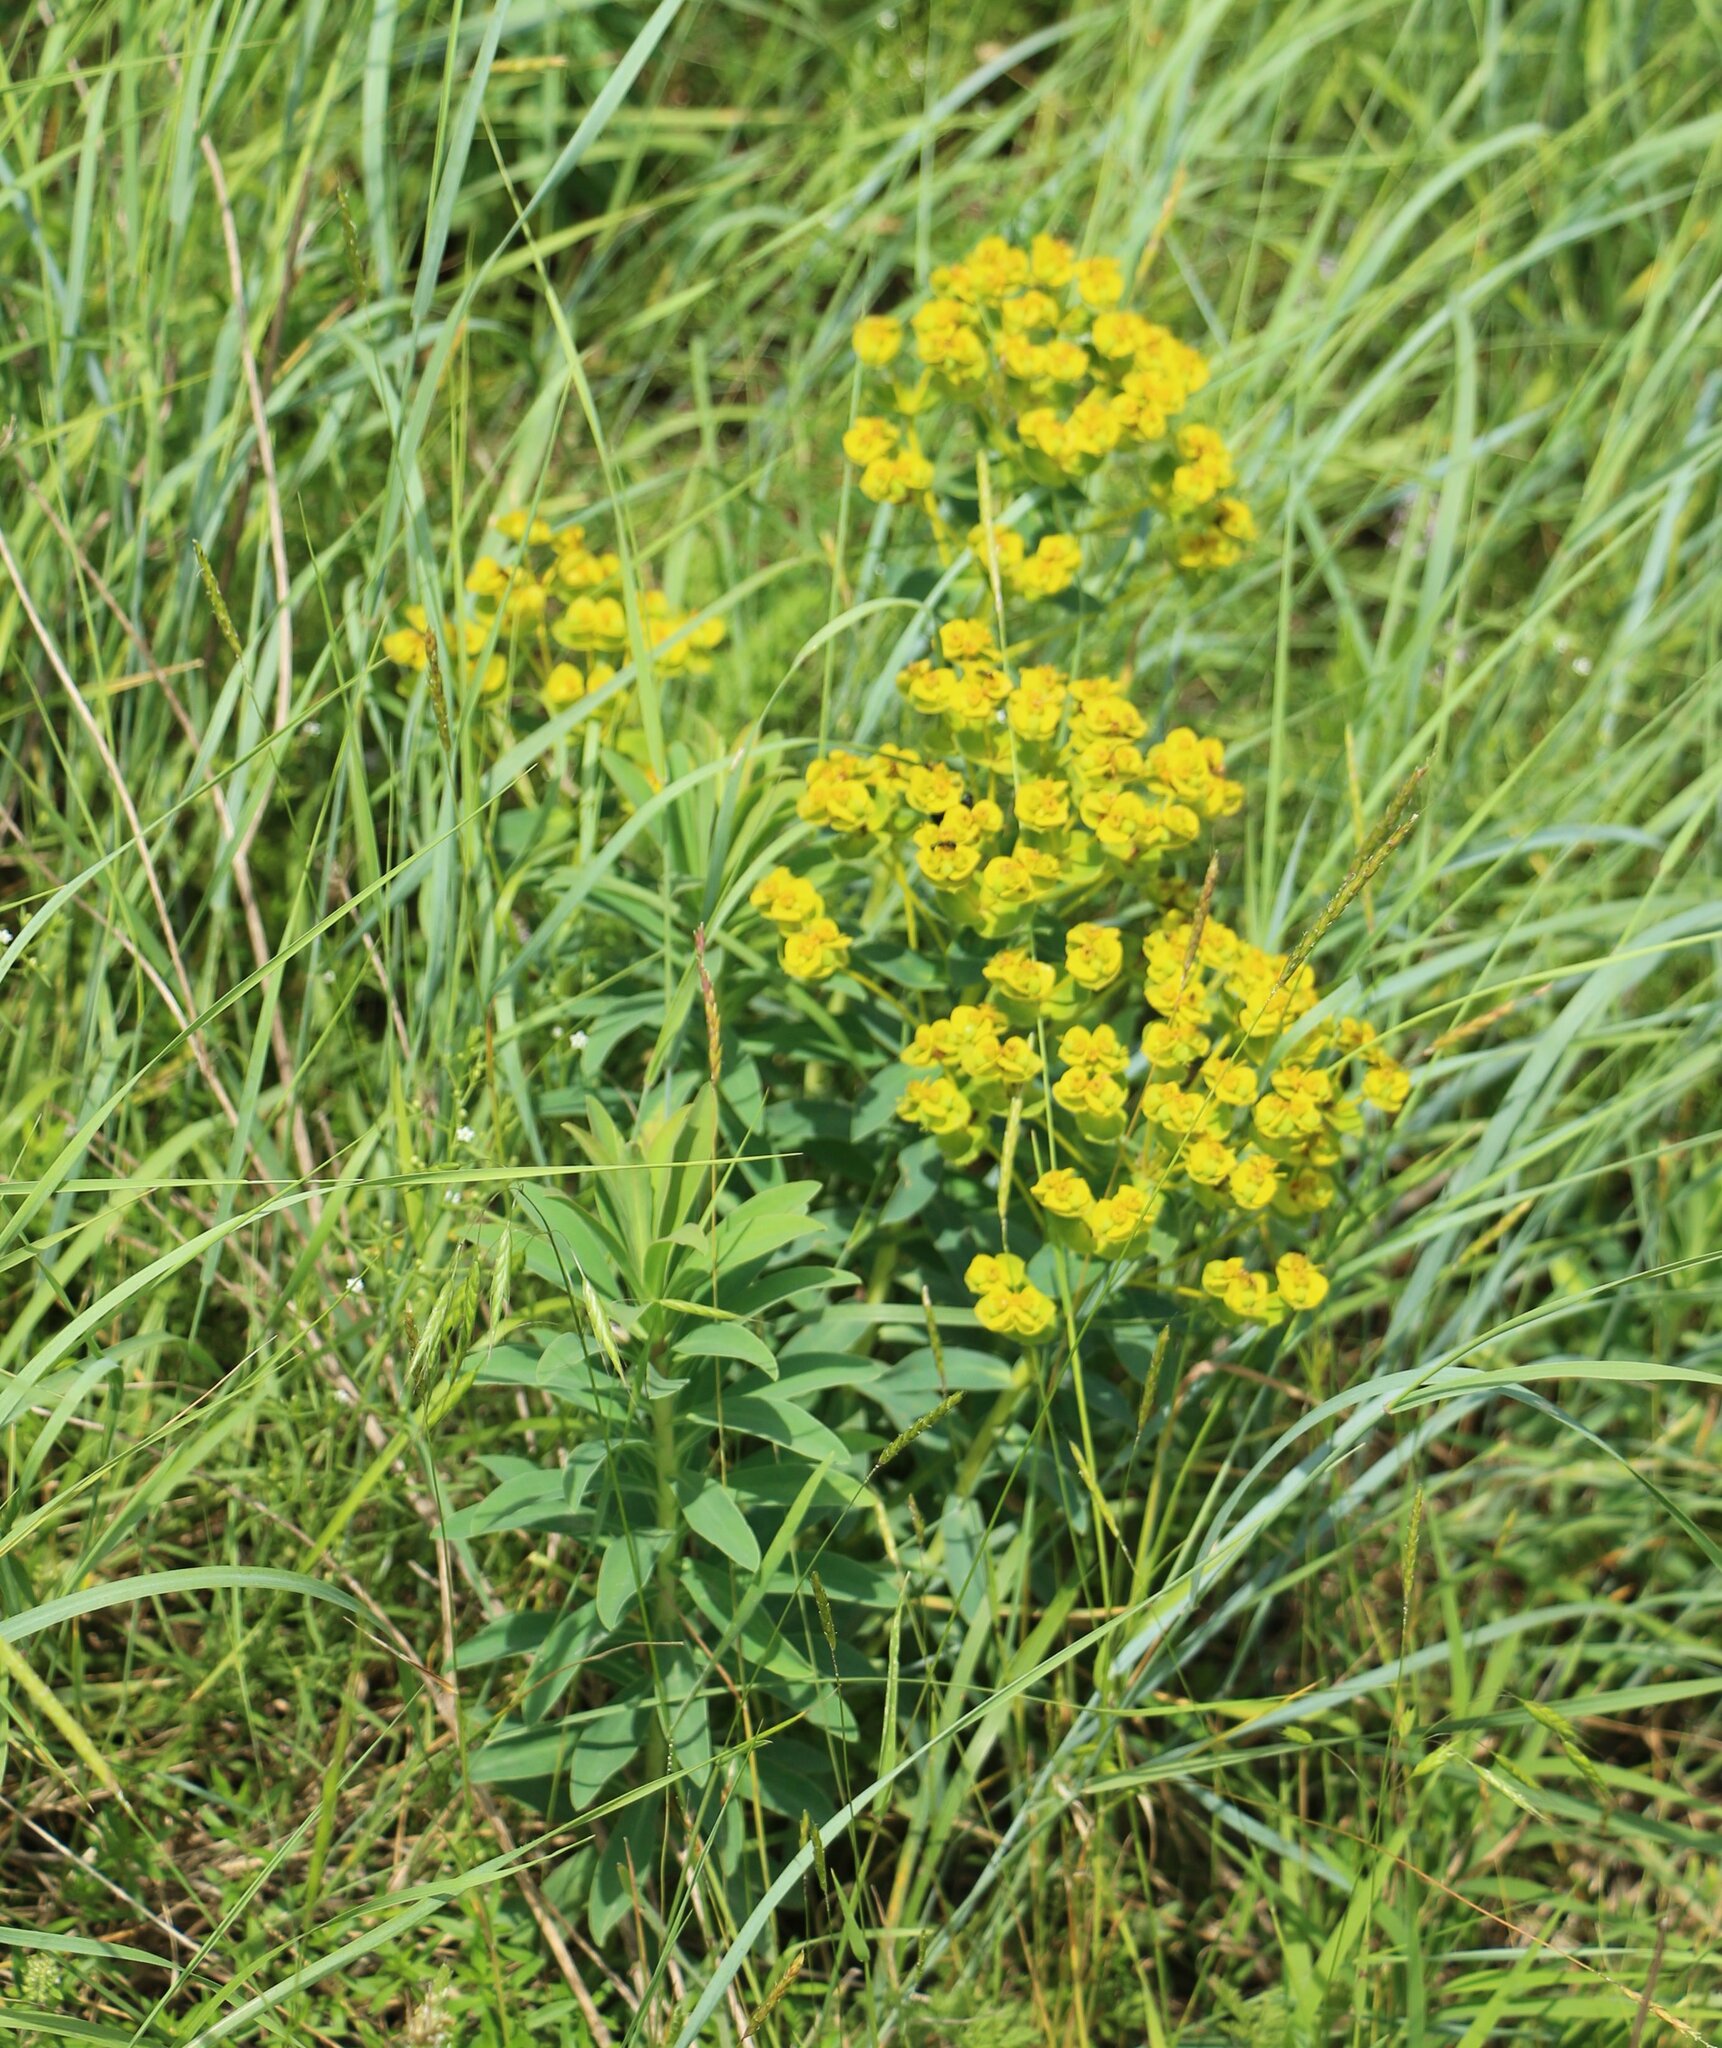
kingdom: Plantae
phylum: Tracheophyta
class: Magnoliopsida
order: Malpighiales
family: Euphorbiaceae
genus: Euphorbia
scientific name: Euphorbia stepposa
